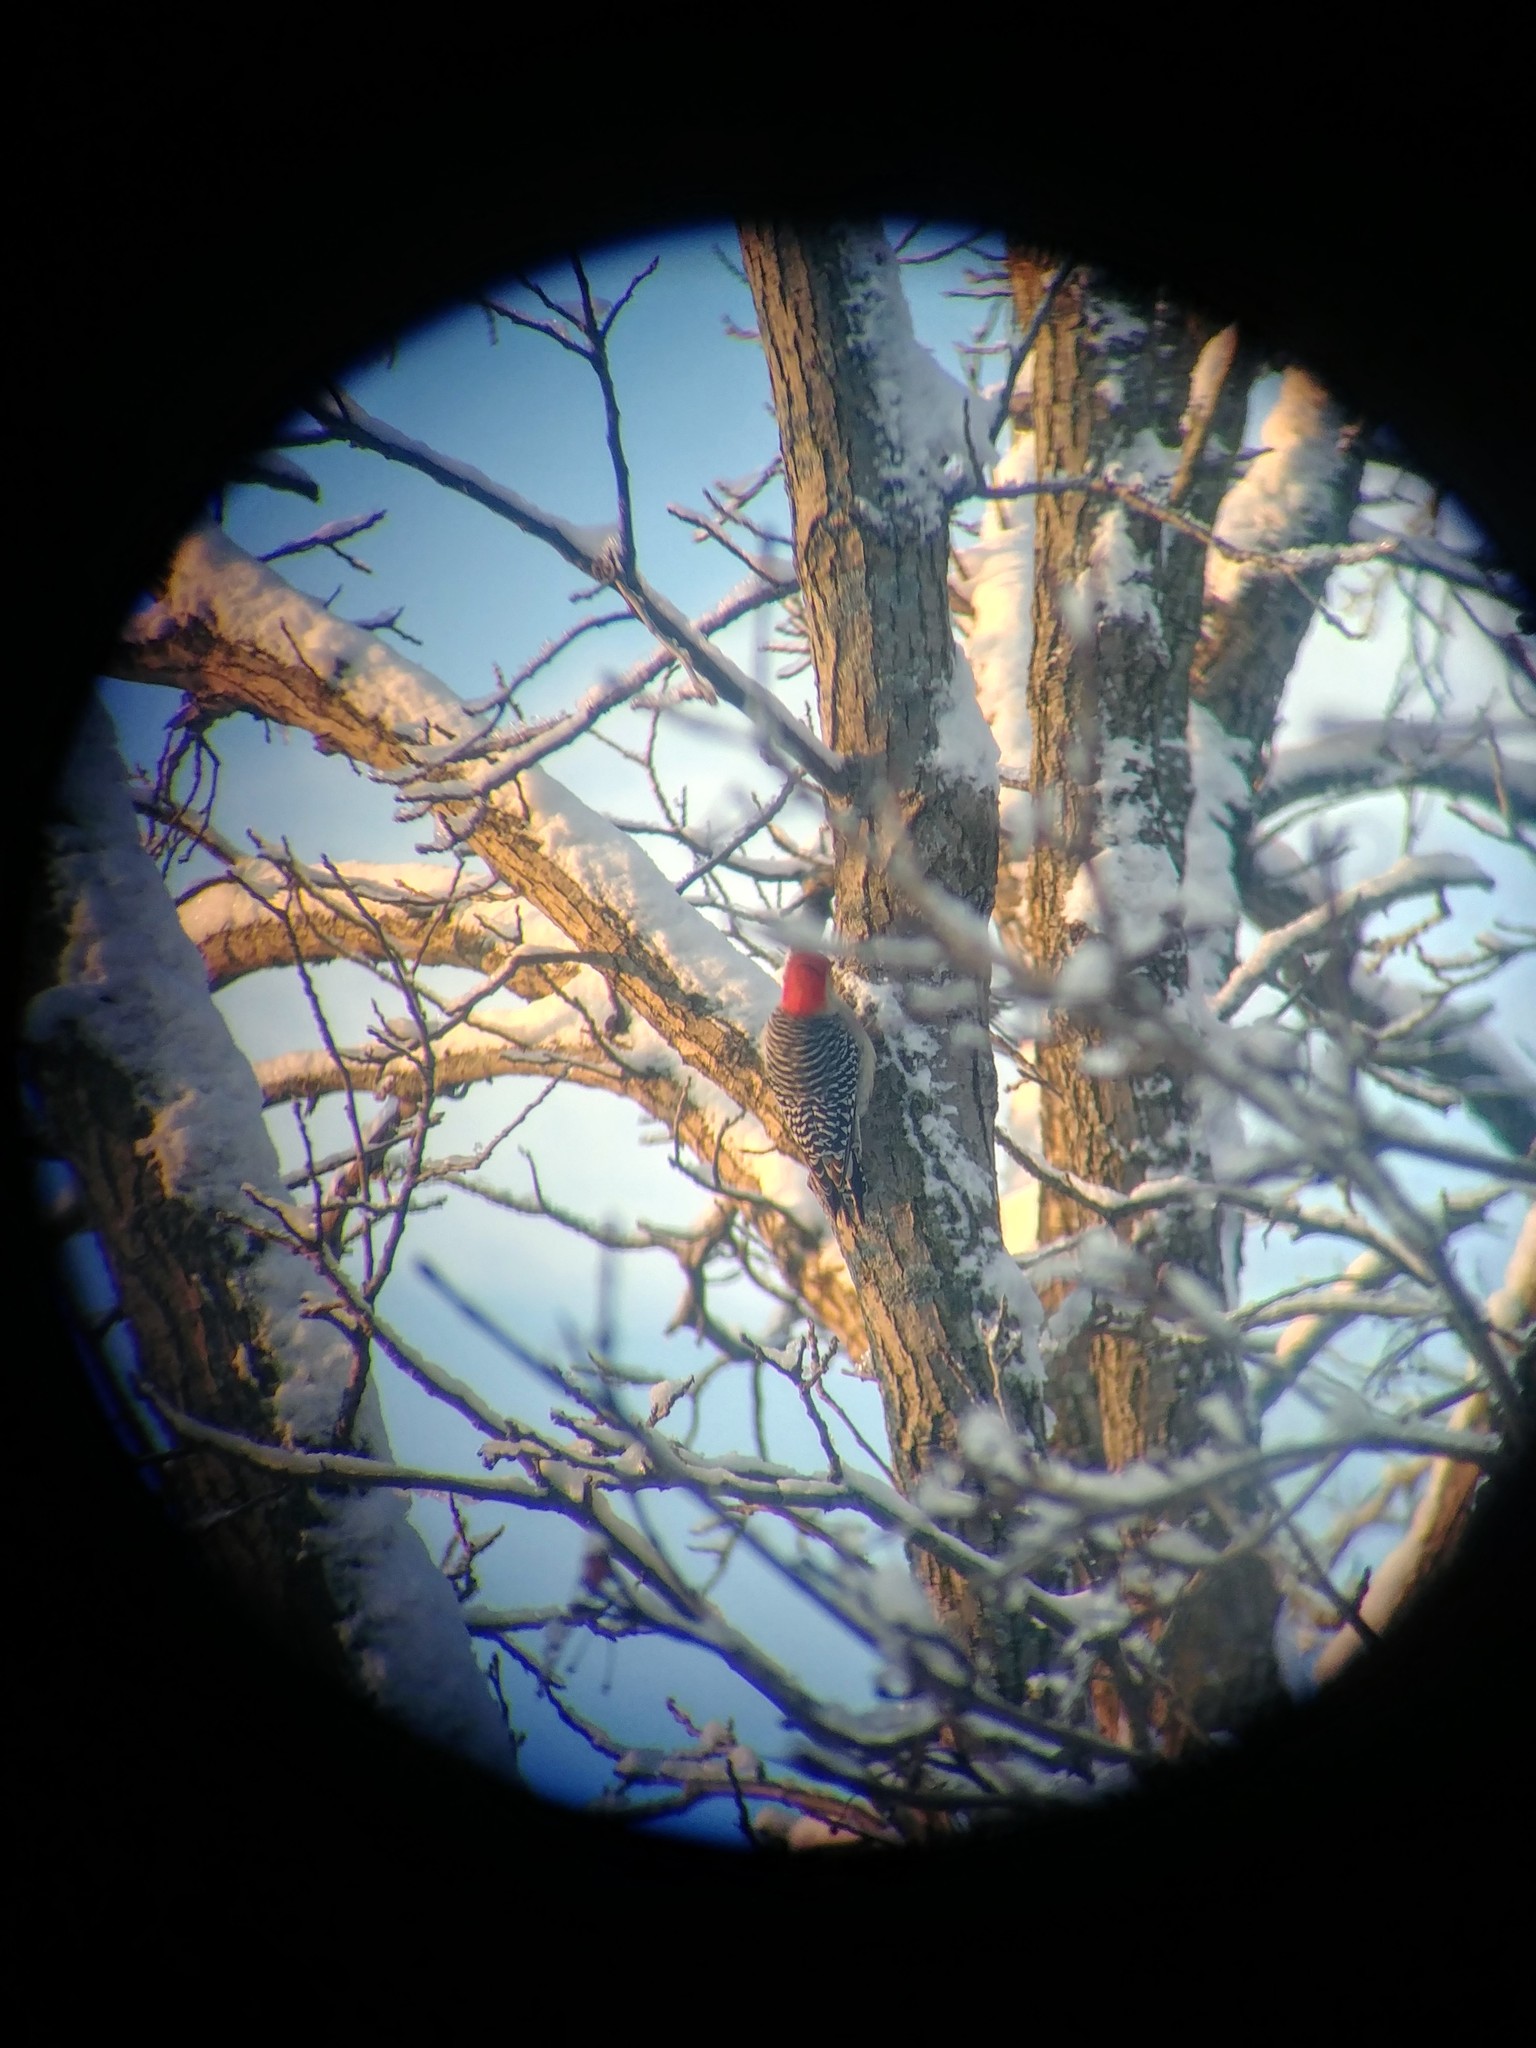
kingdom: Animalia
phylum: Chordata
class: Aves
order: Piciformes
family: Picidae
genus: Melanerpes
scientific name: Melanerpes carolinus
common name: Red-bellied woodpecker
